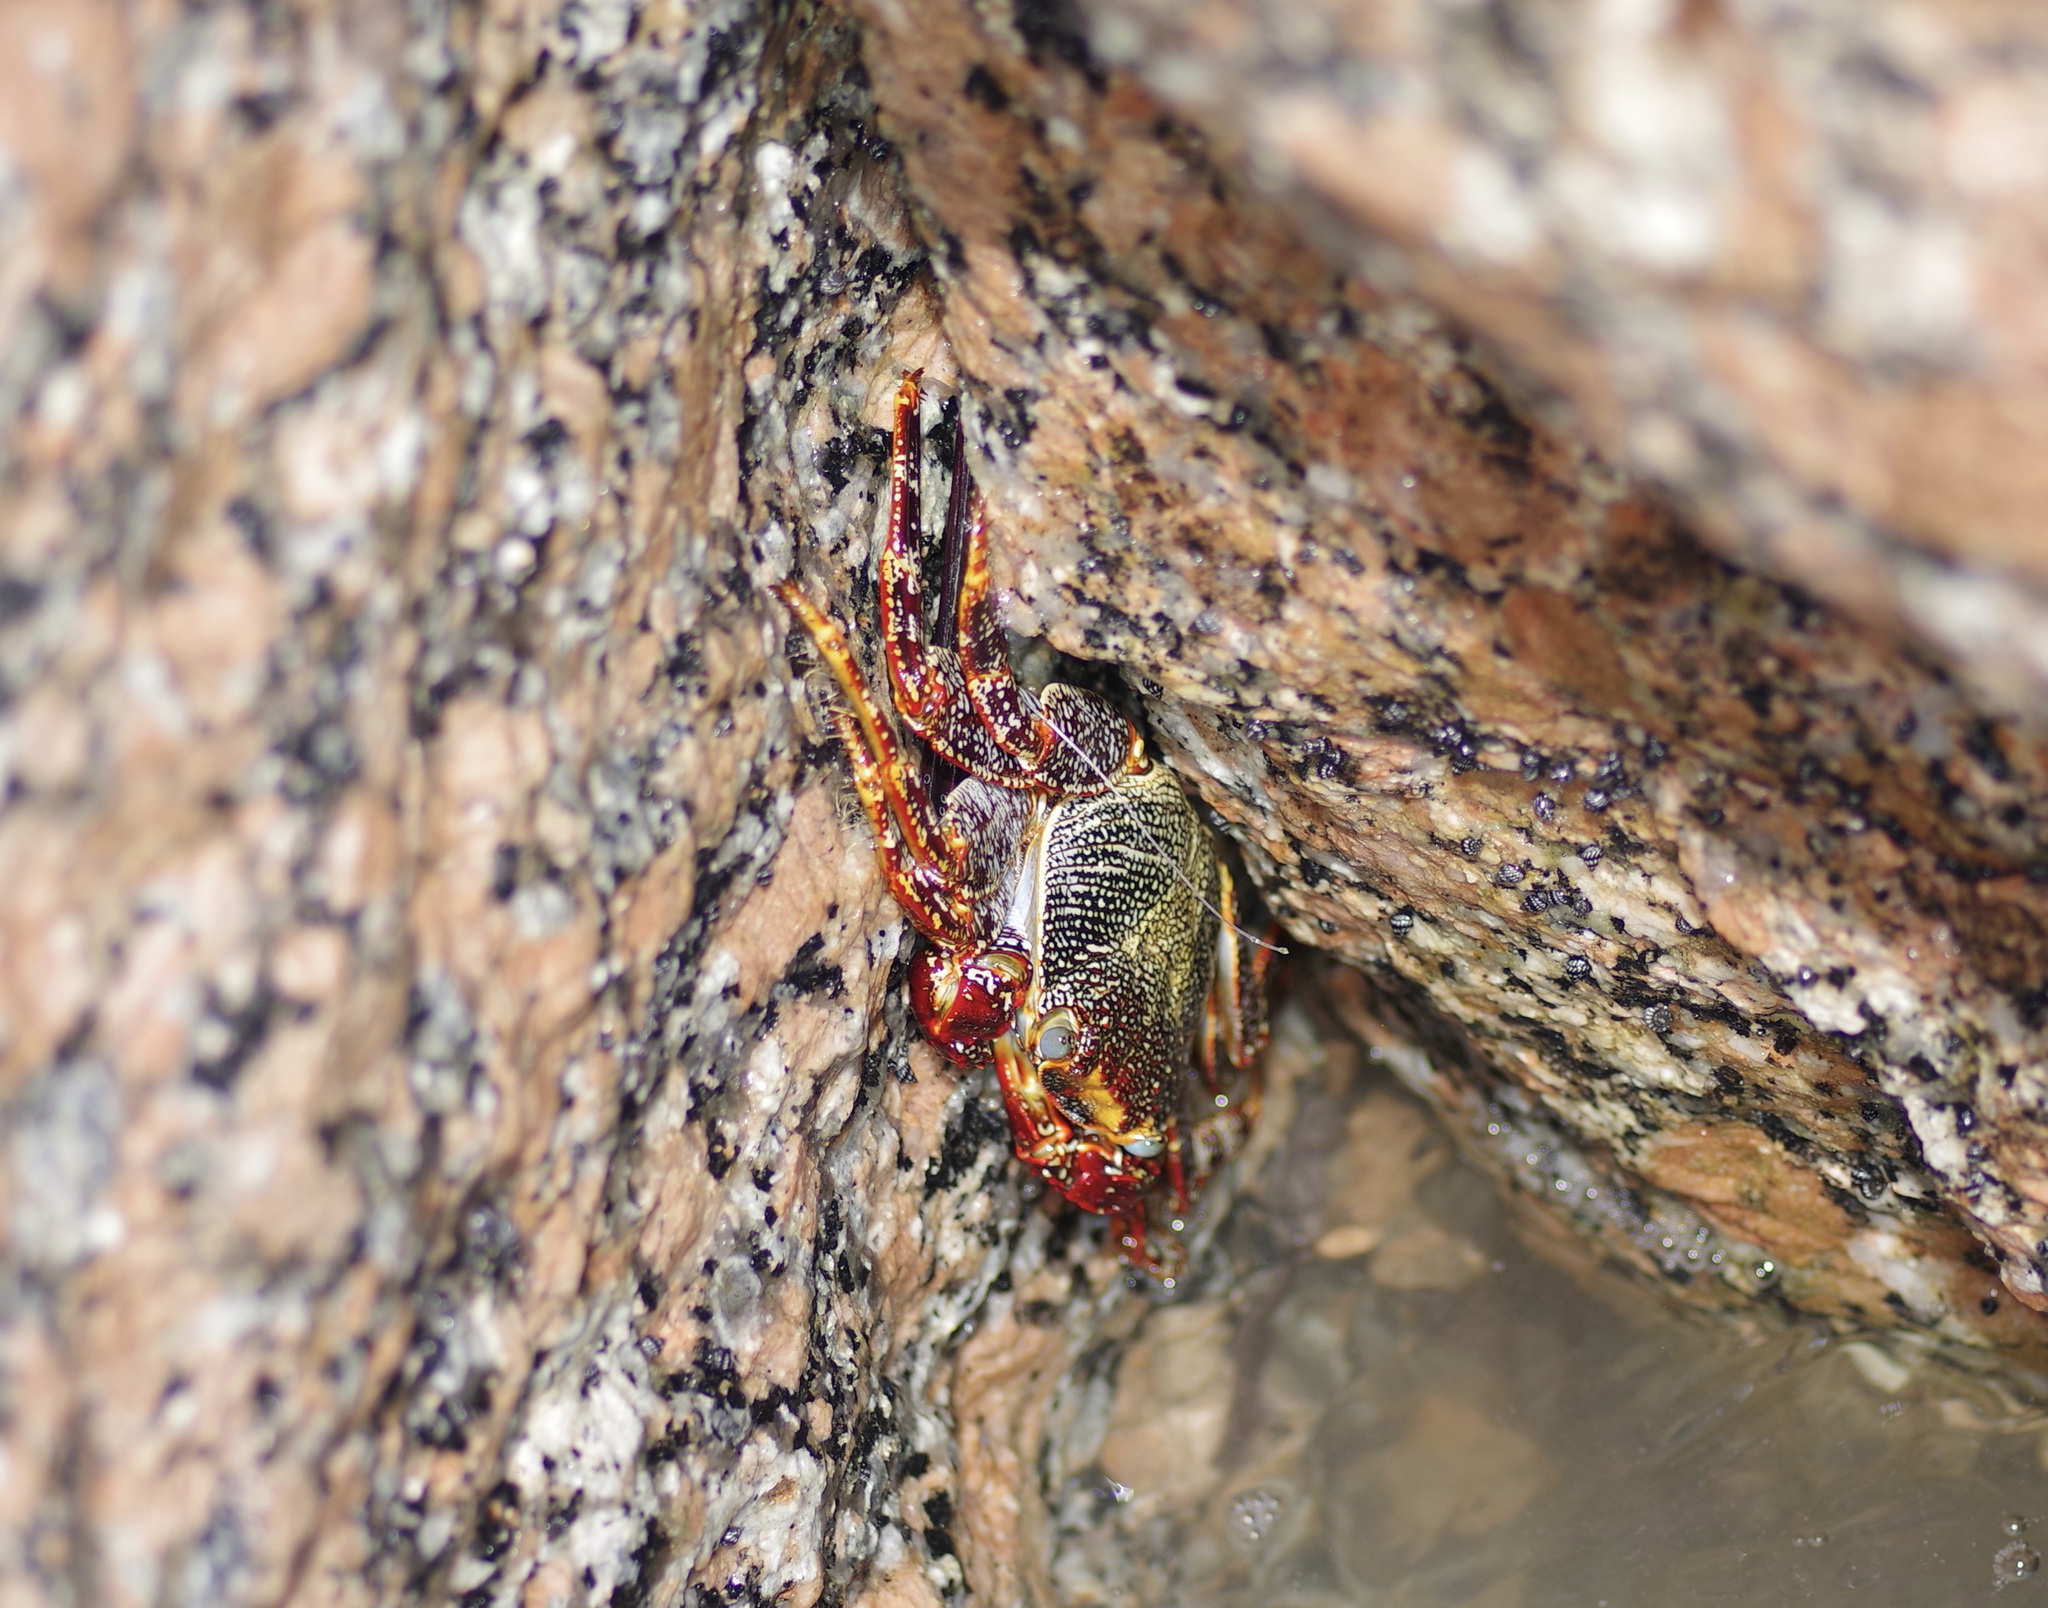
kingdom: Animalia
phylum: Arthropoda
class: Malacostraca
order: Decapoda
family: Grapsidae
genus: Grapsus
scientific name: Grapsus grapsus
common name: Sally lightfoot
